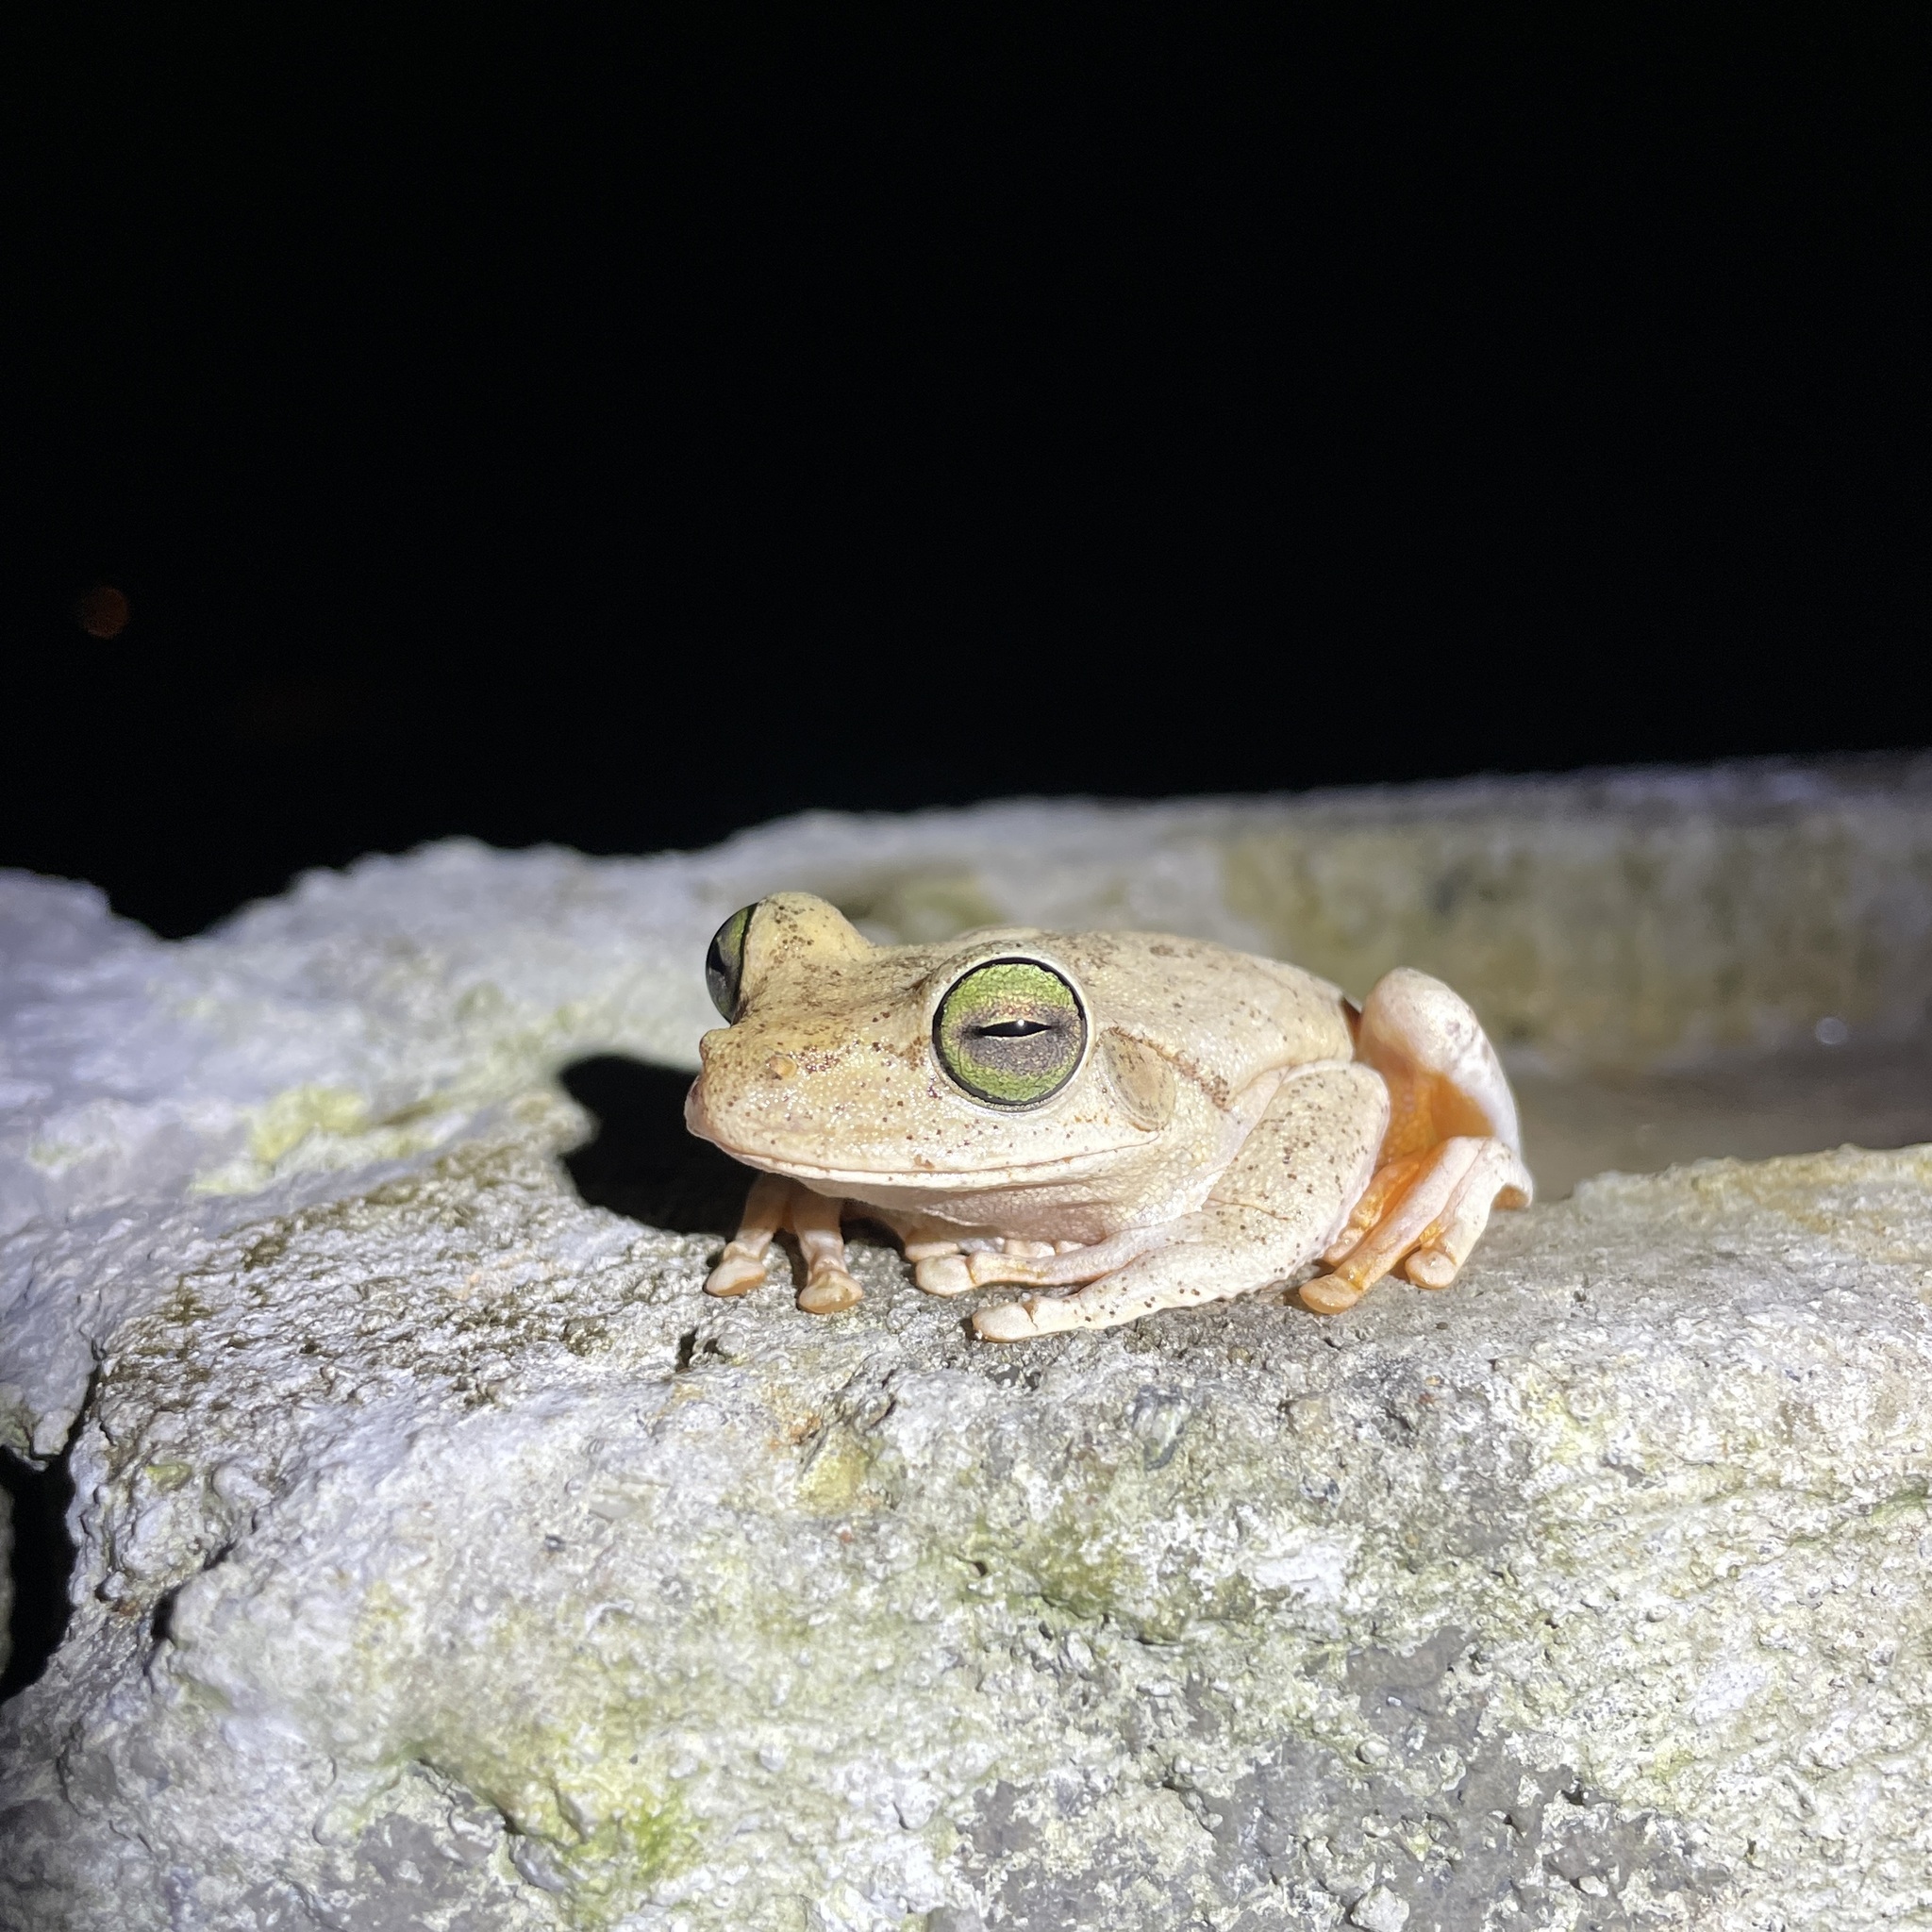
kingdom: Animalia
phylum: Chordata
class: Amphibia
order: Anura
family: Hylidae
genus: Boana
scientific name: Boana platanera
